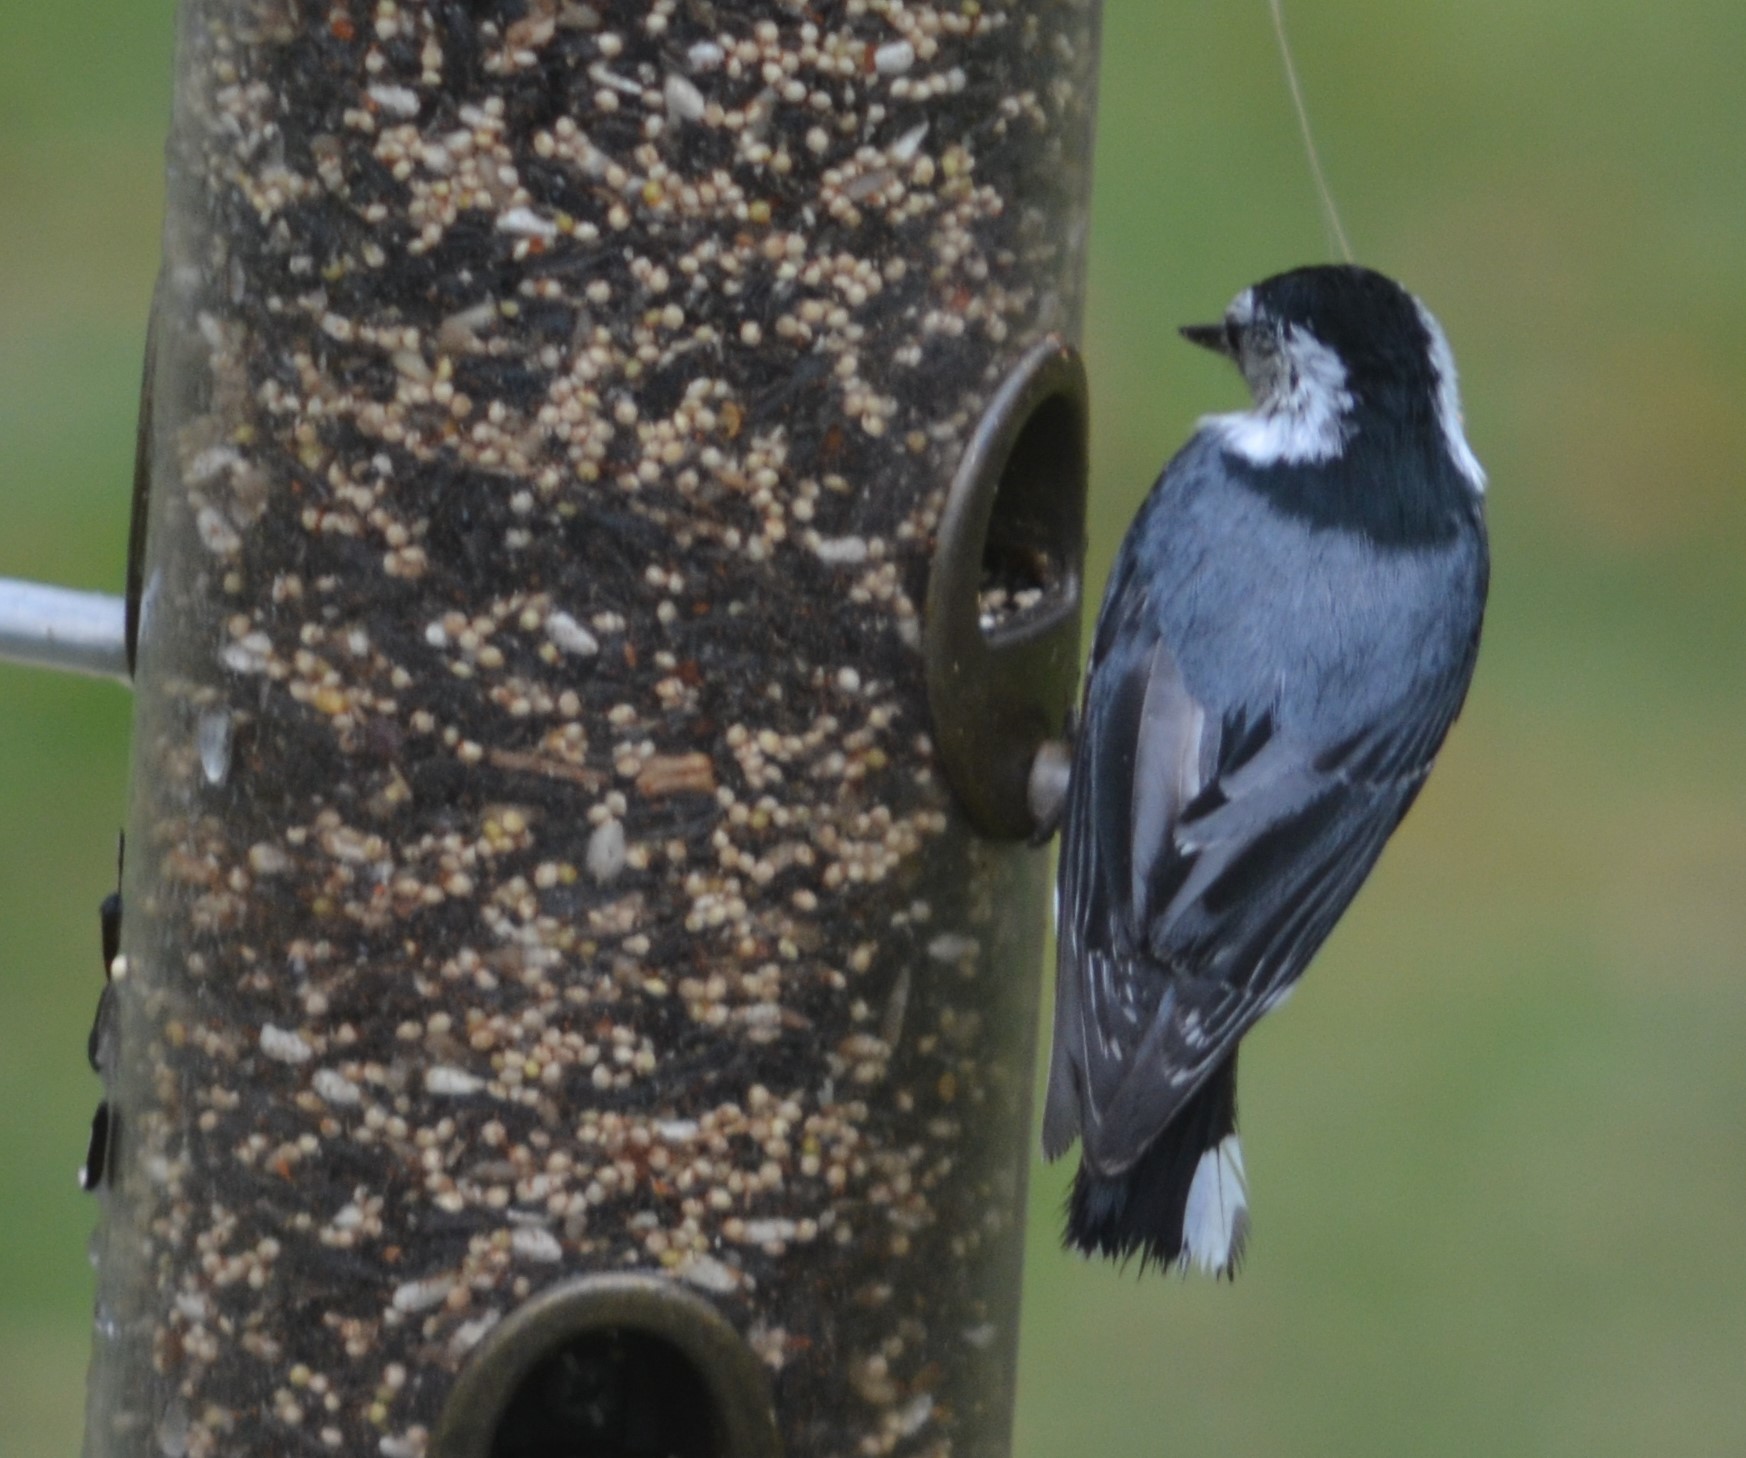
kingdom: Animalia
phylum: Chordata
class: Aves
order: Passeriformes
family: Sittidae
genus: Sitta
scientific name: Sitta carolinensis
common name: White-breasted nuthatch
